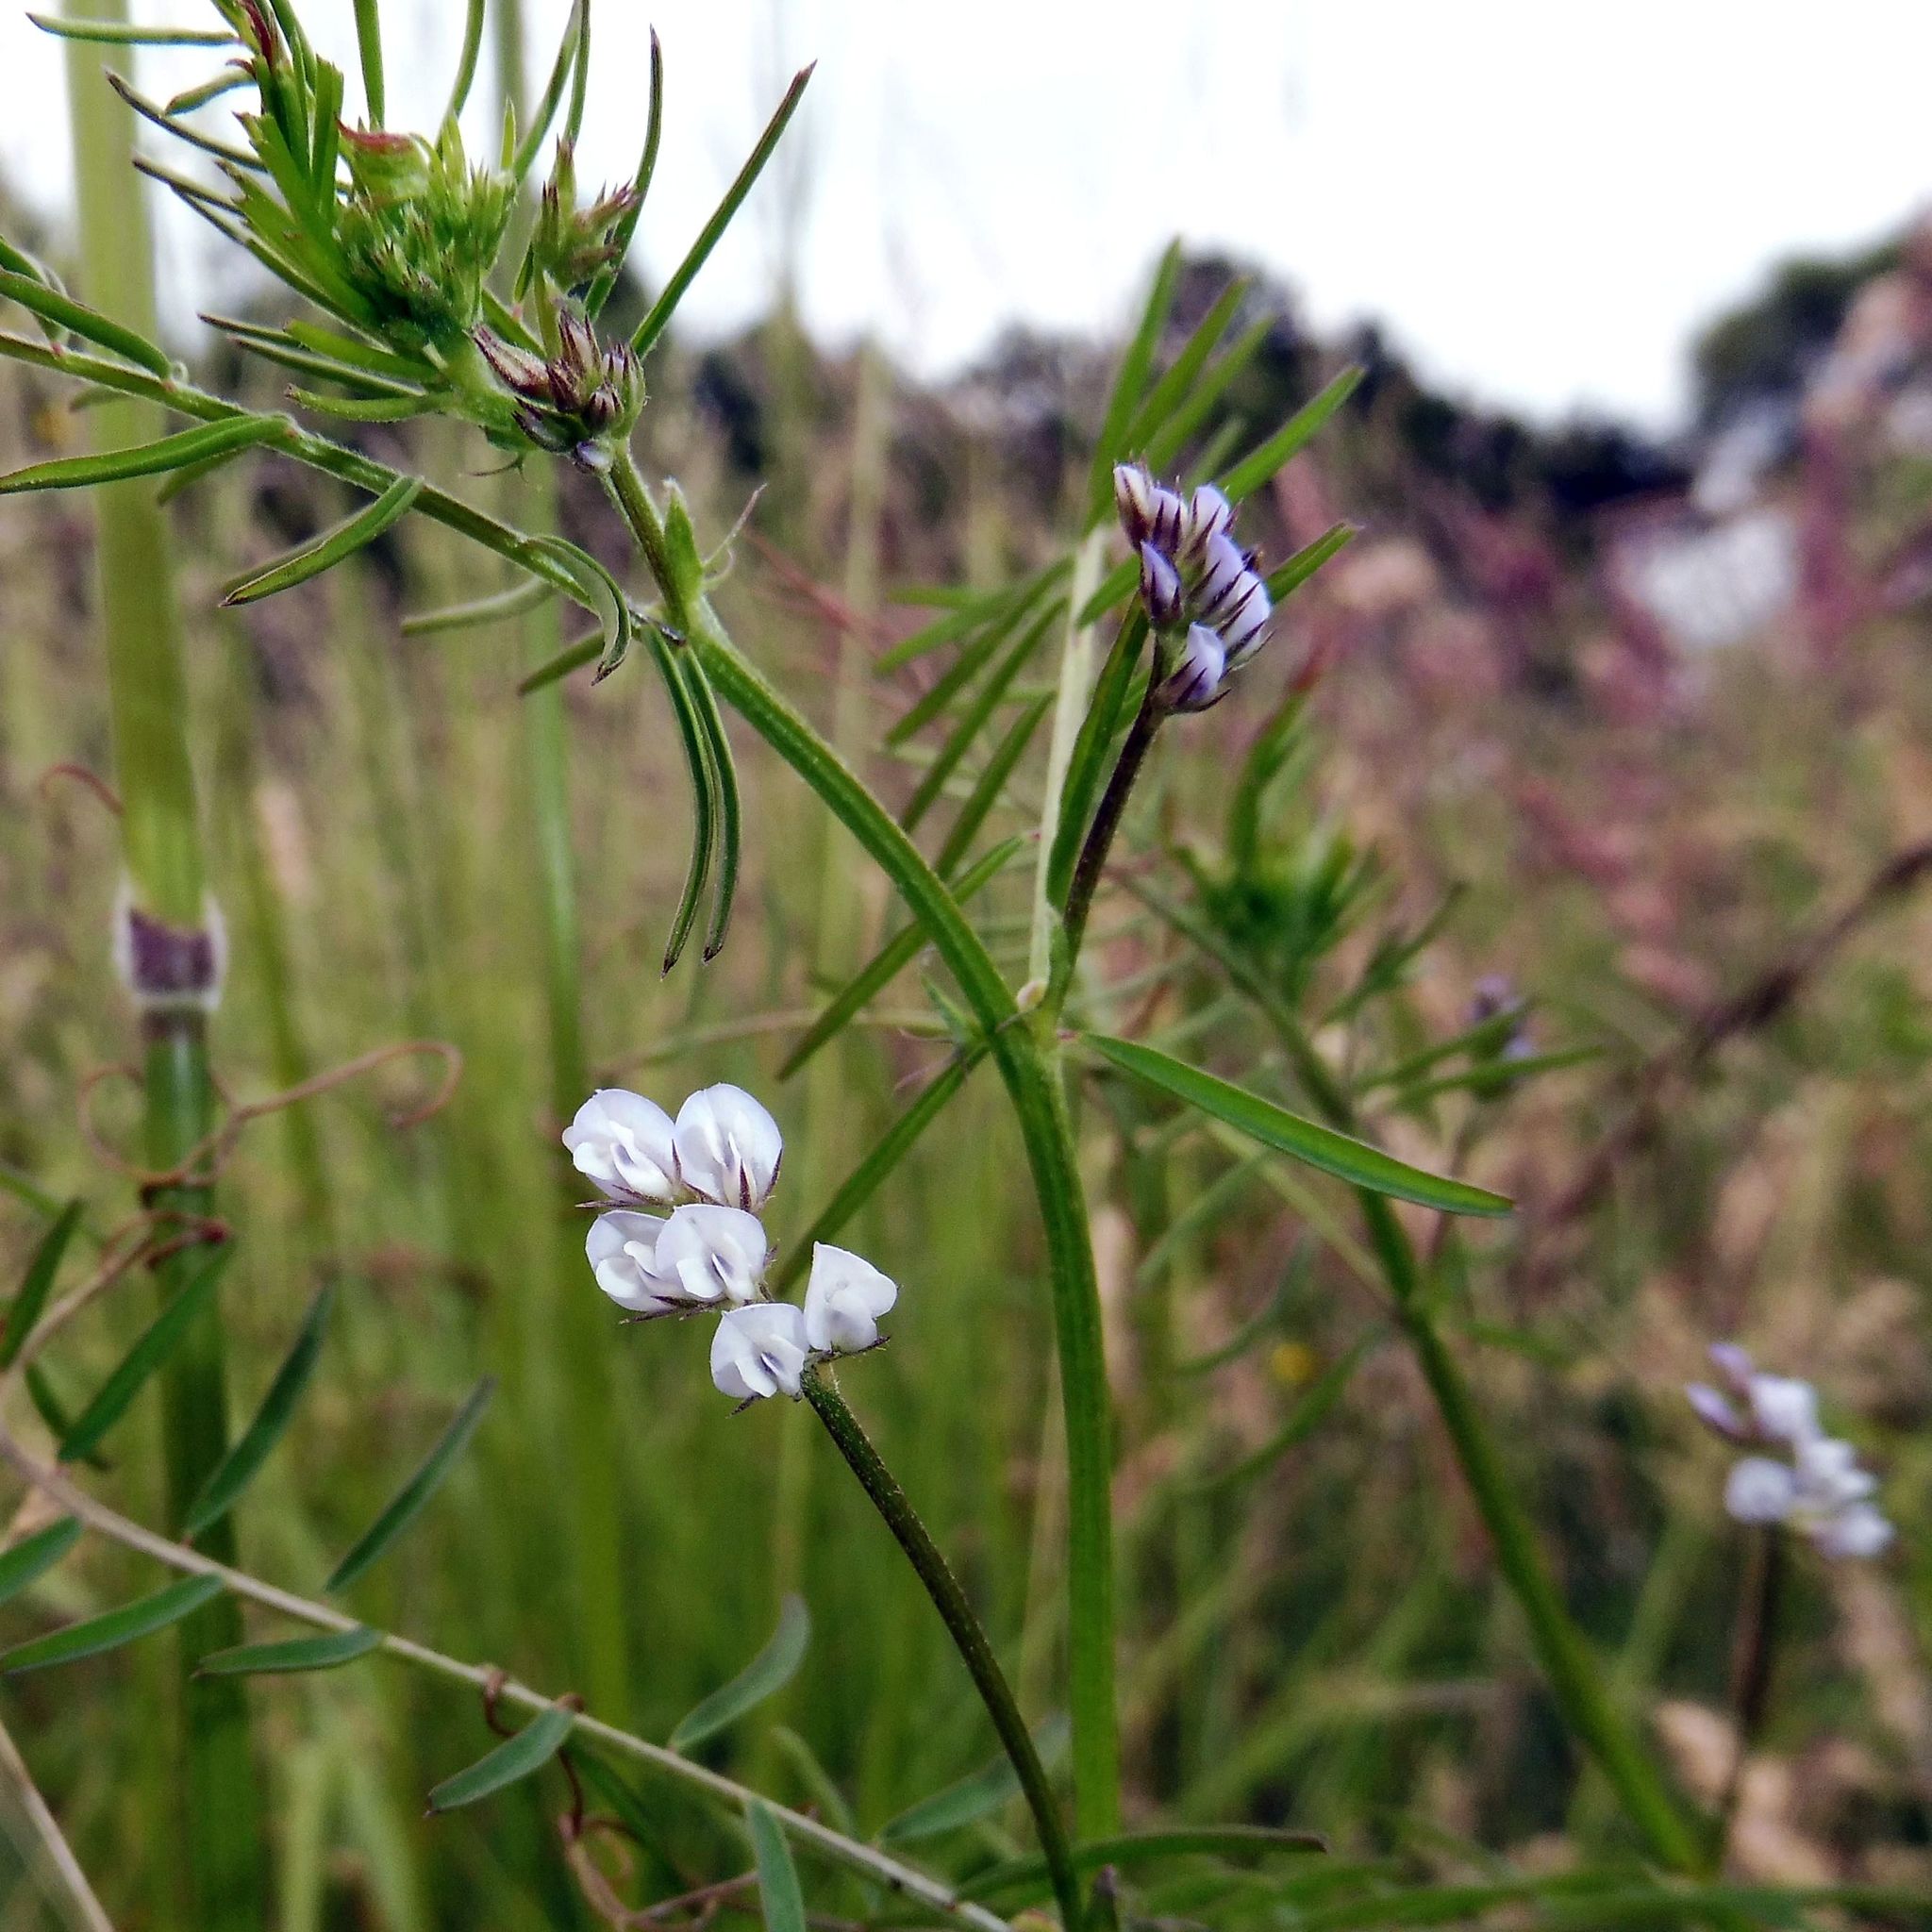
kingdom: Plantae
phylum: Tracheophyta
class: Magnoliopsida
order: Fabales
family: Fabaceae
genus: Vicia
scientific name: Vicia hirsuta
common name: Tiny vetch
